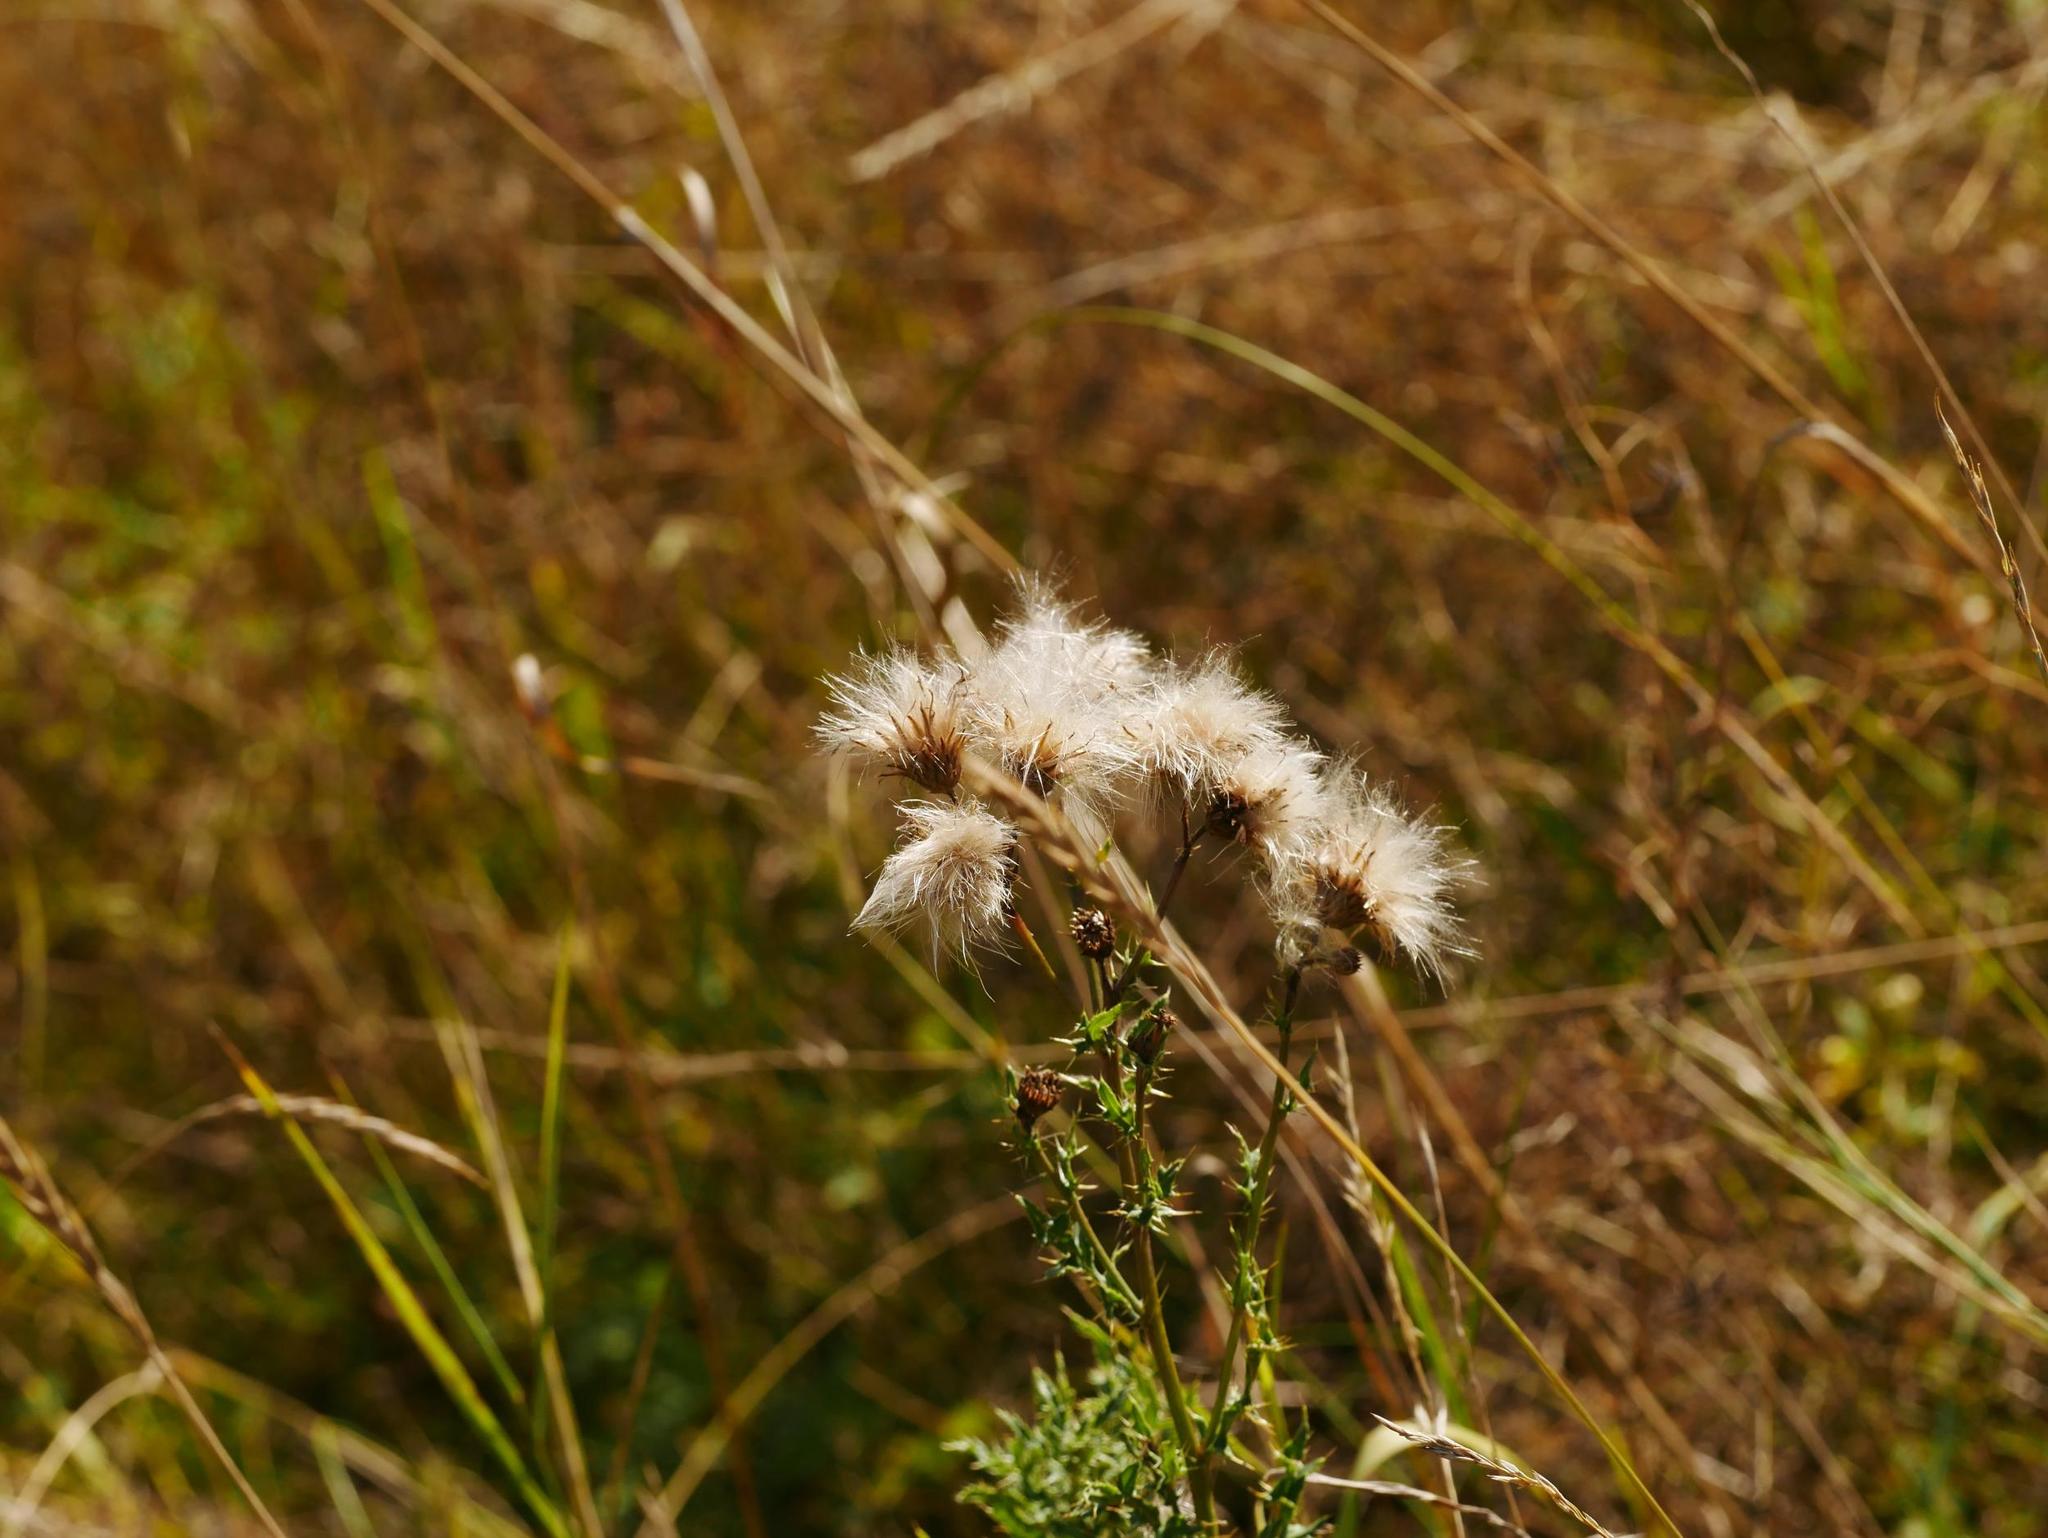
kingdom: Plantae
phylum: Tracheophyta
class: Magnoliopsida
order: Asterales
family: Asteraceae
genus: Cirsium
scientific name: Cirsium arvense
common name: Creeping thistle
